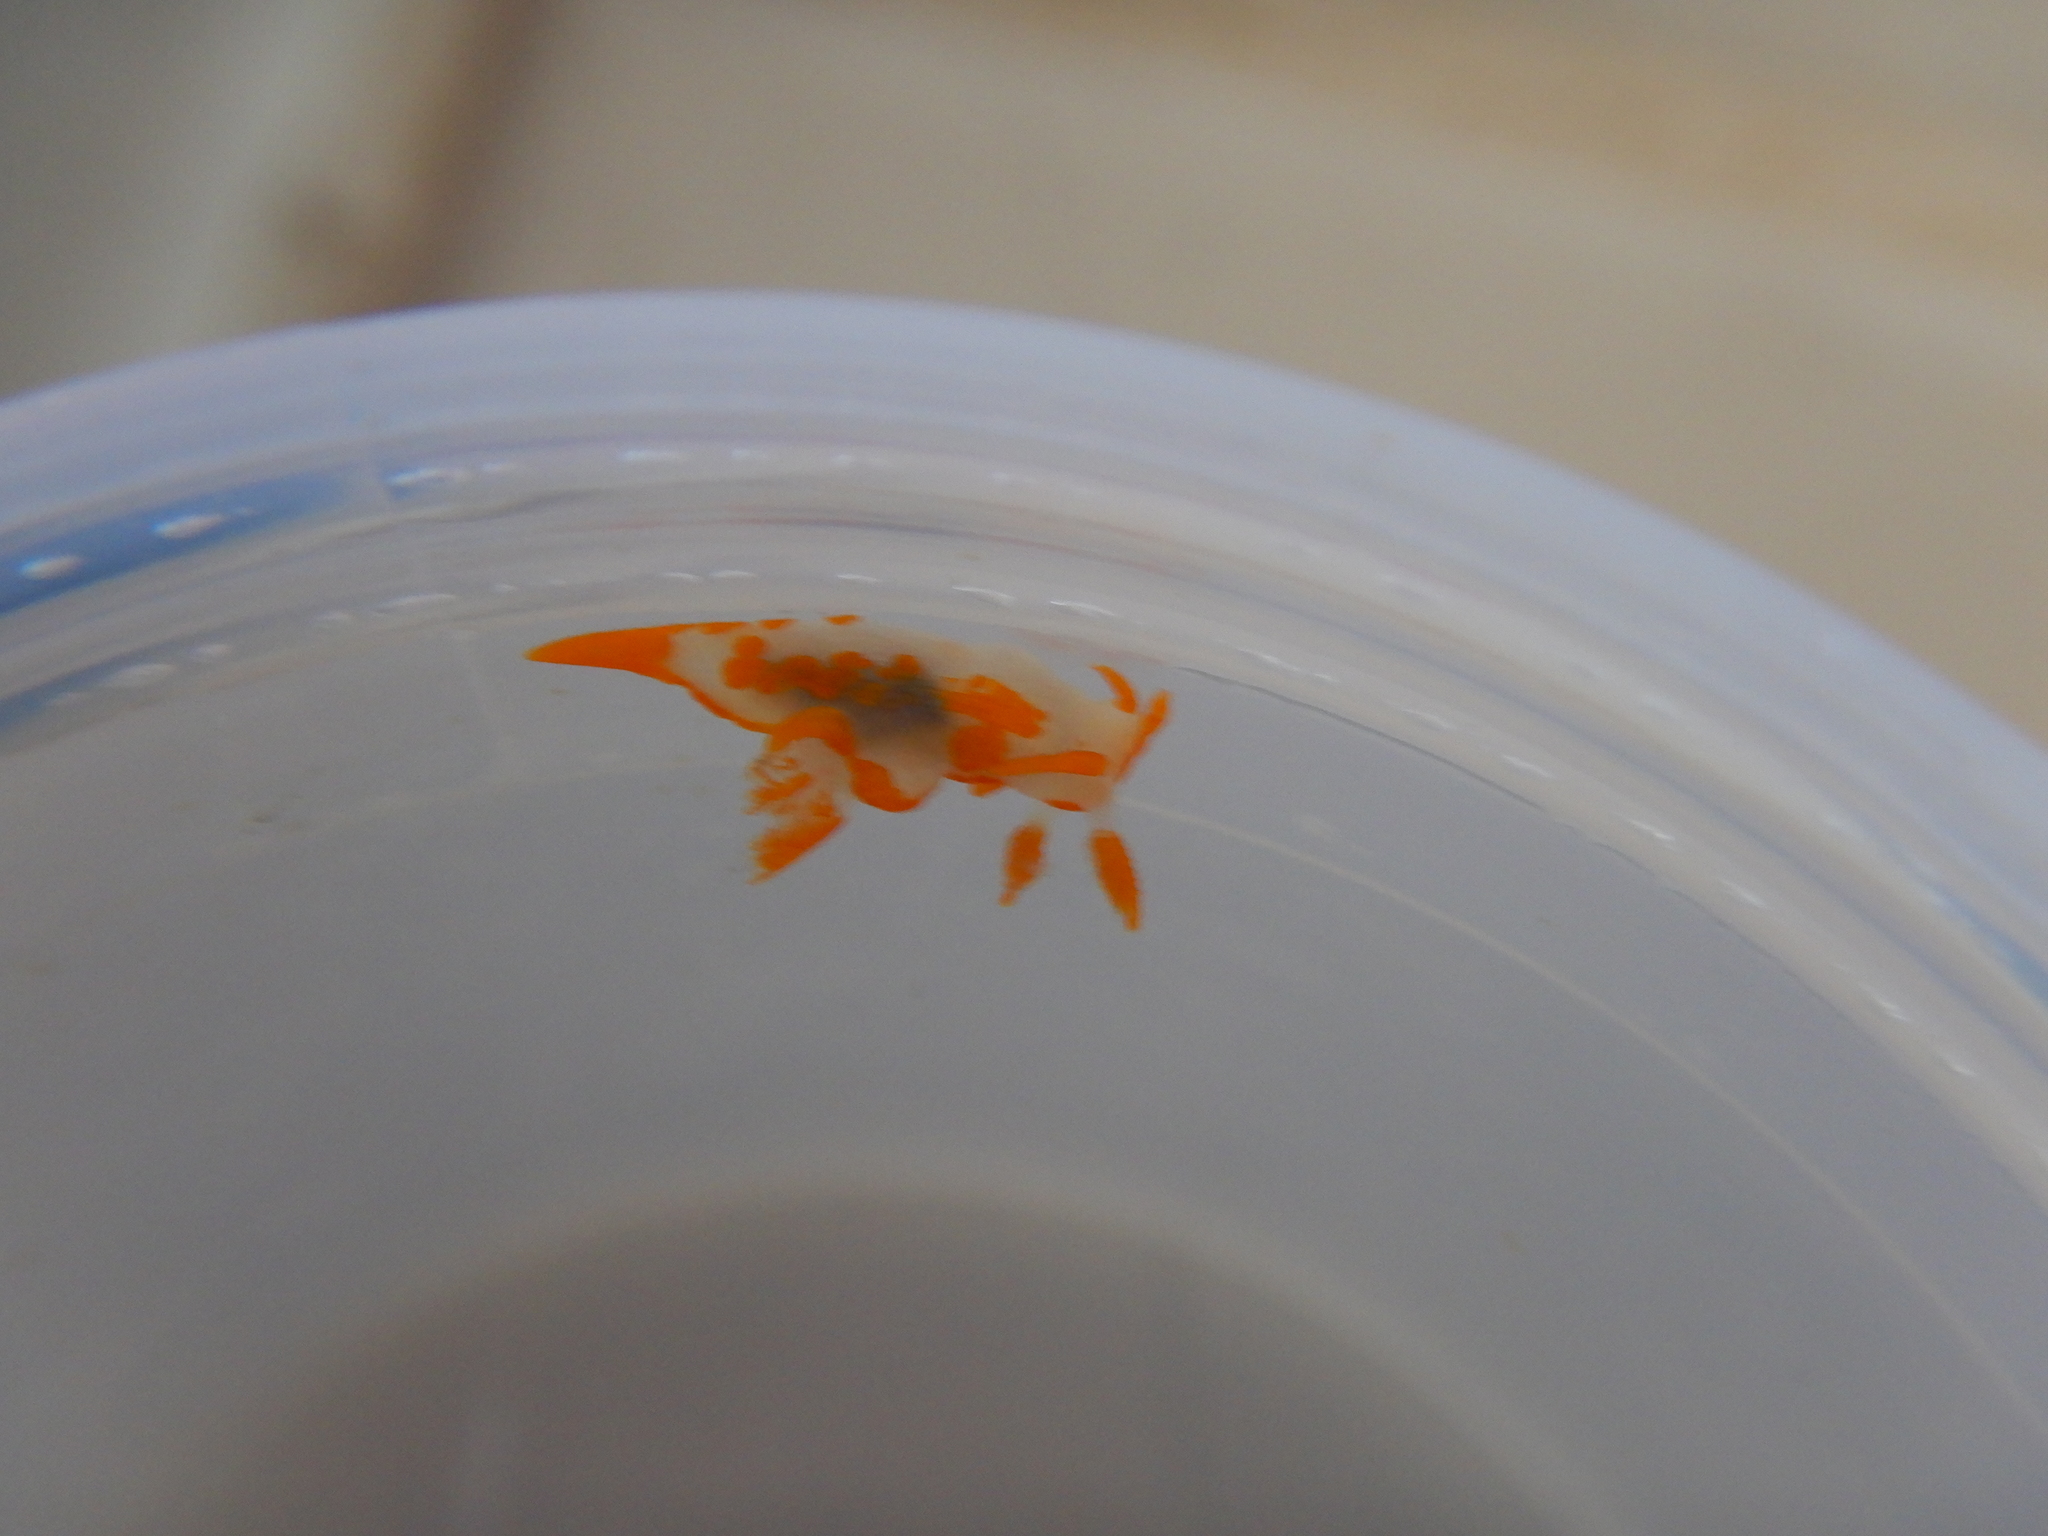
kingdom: Animalia
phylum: Mollusca
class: Gastropoda
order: Nudibranchia
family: Goniodorididae
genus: Trapania
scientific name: Trapania maculata
